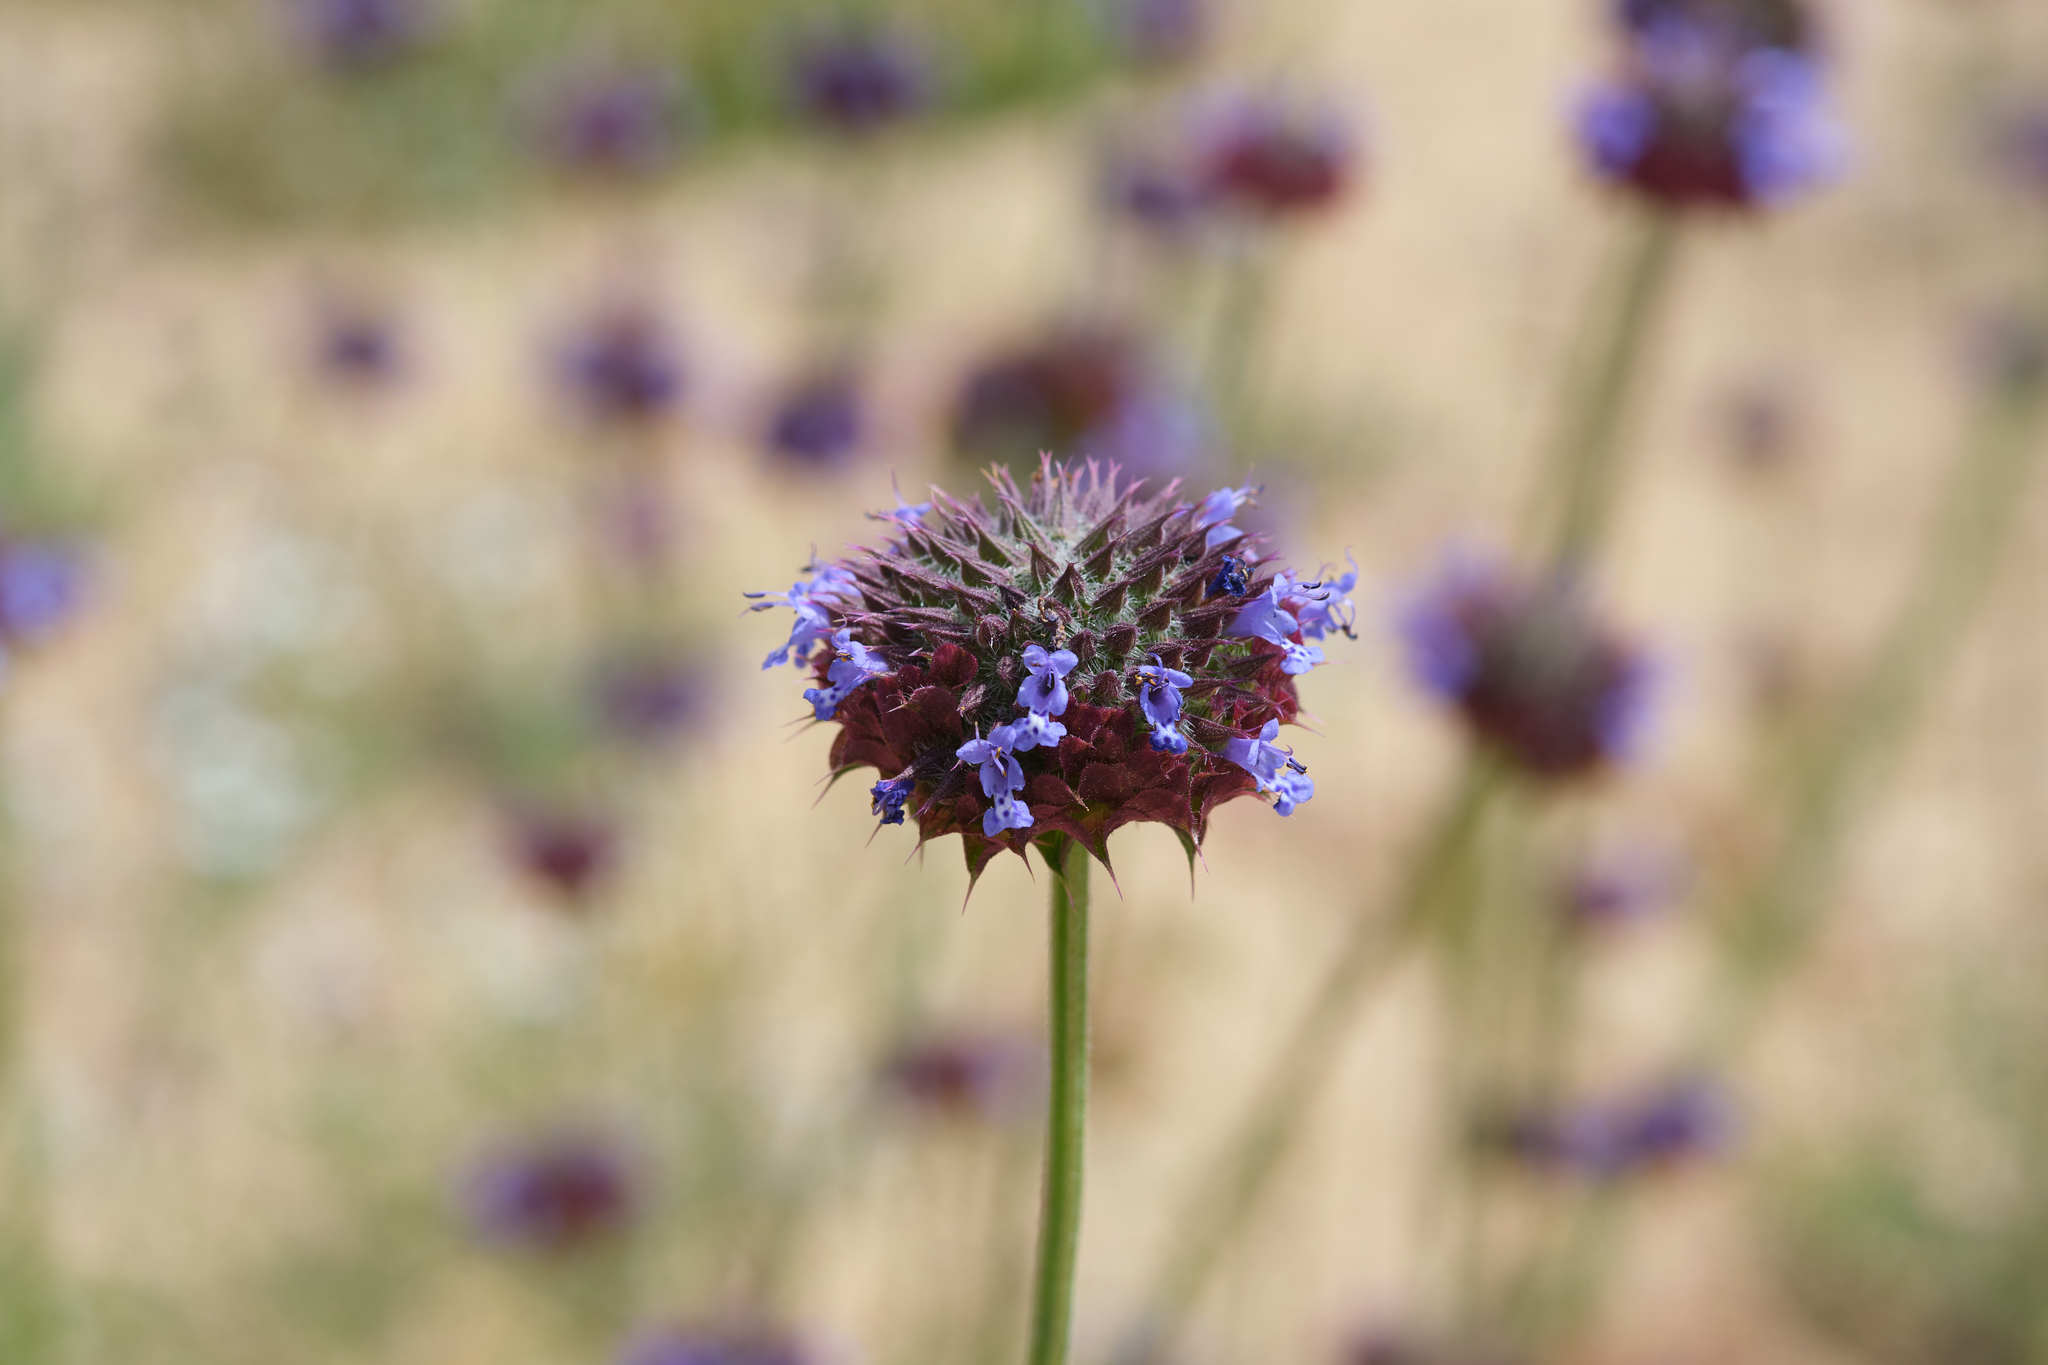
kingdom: Plantae
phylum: Tracheophyta
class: Magnoliopsida
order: Lamiales
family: Lamiaceae
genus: Salvia
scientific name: Salvia columbariae
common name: Chia
